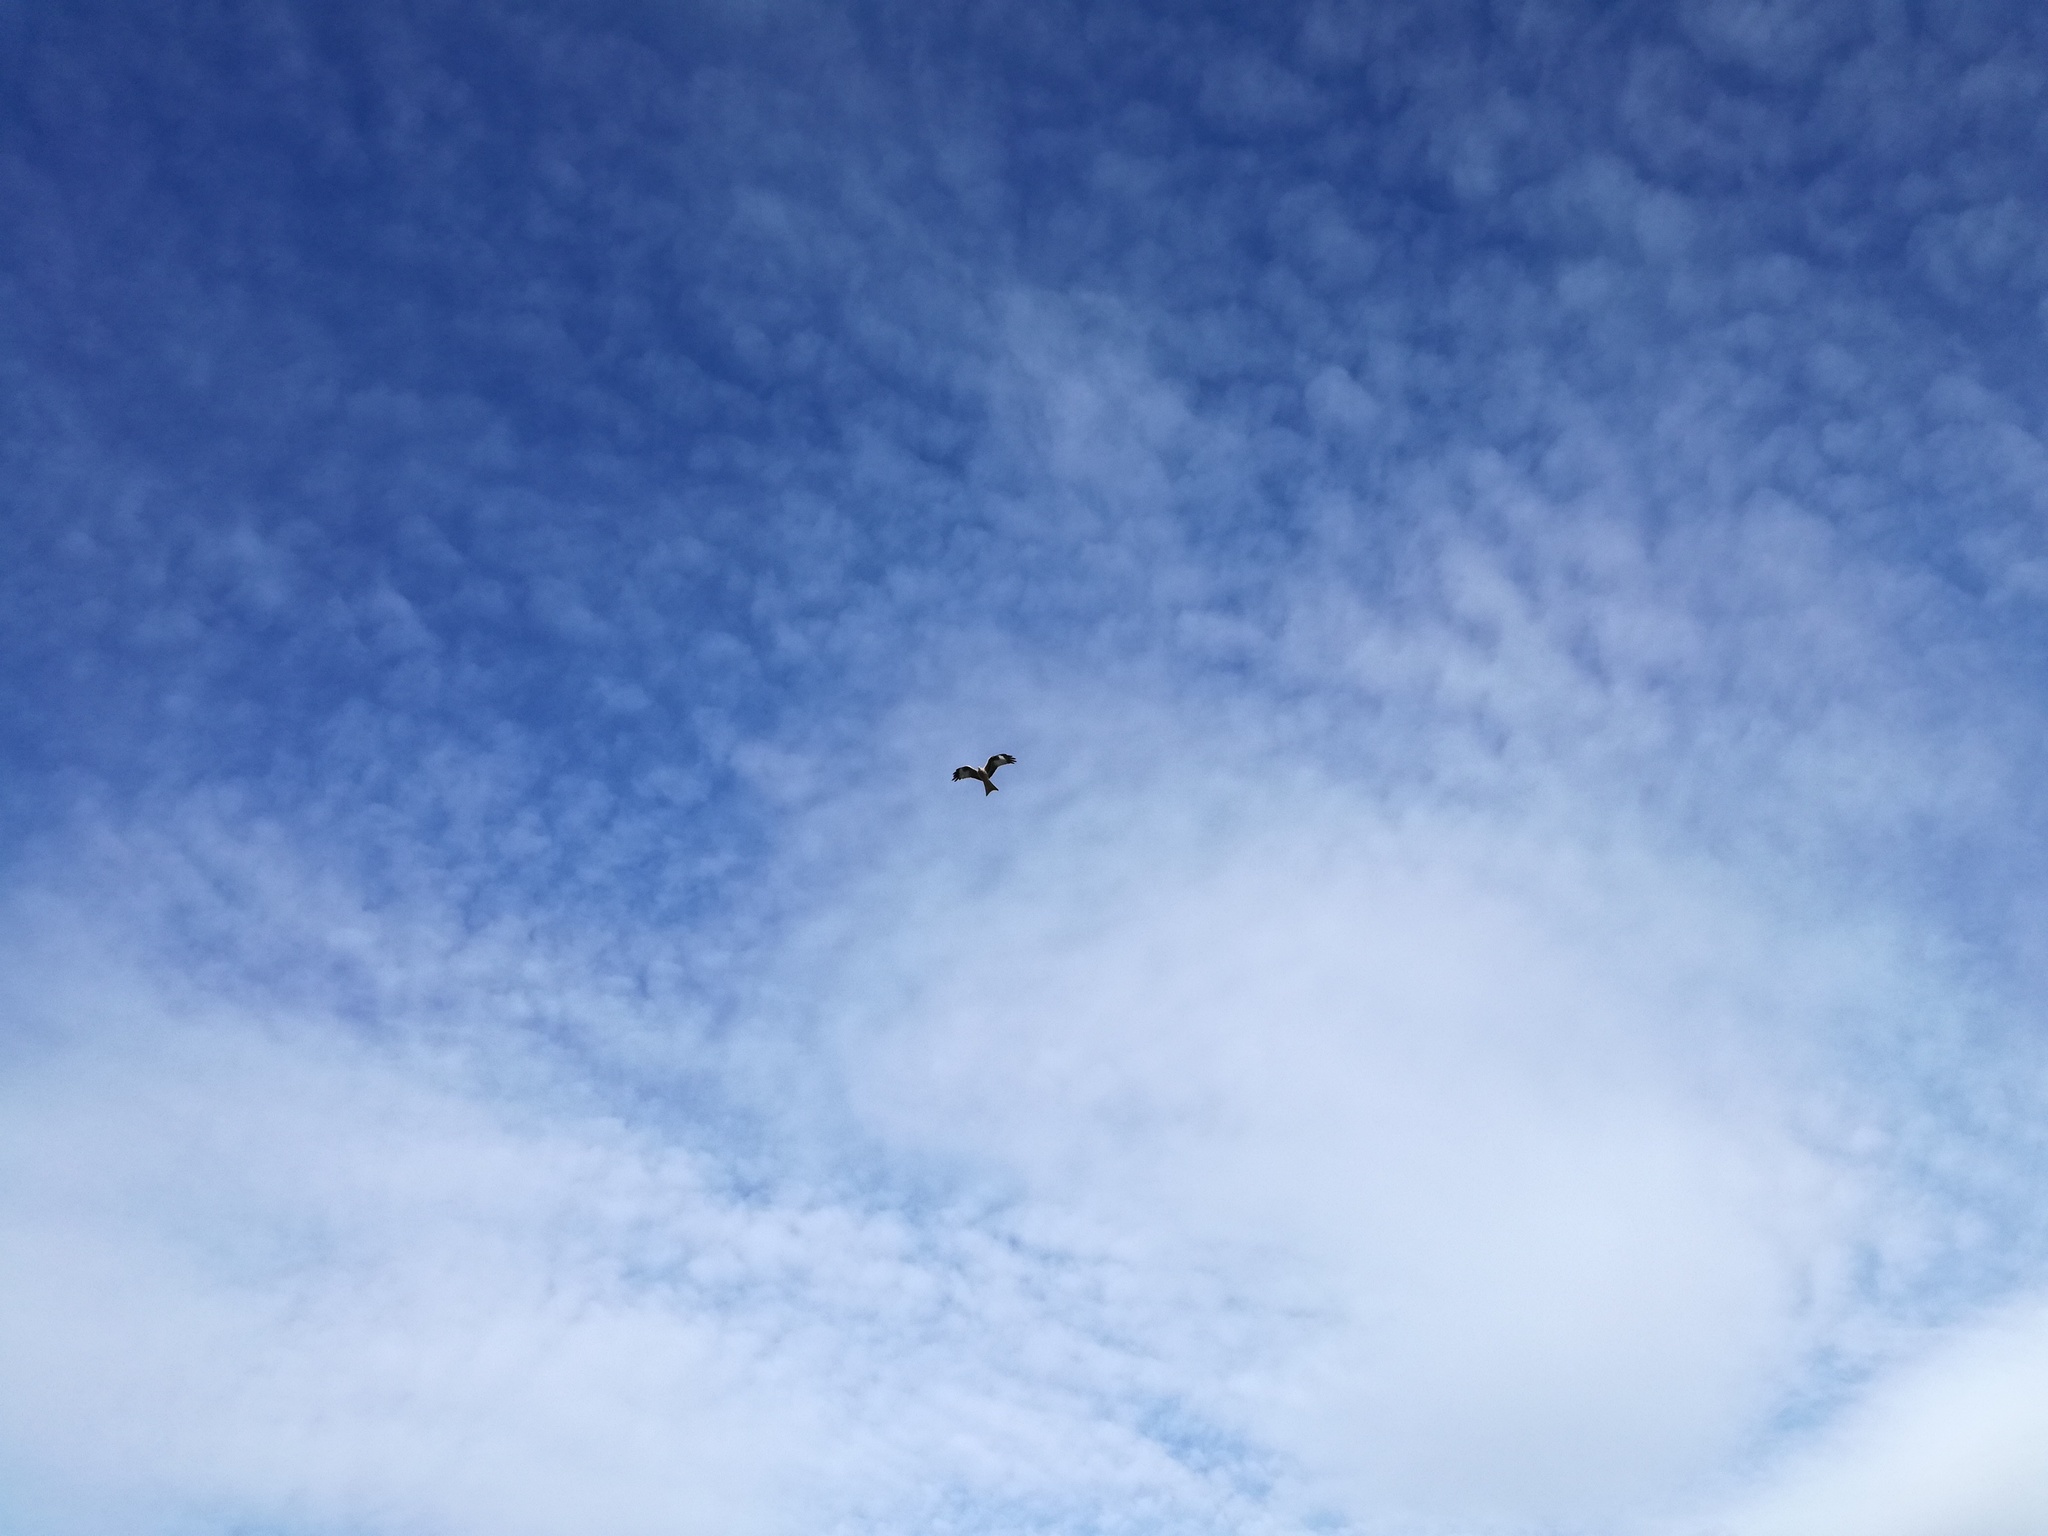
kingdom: Animalia
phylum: Chordata
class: Aves
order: Accipitriformes
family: Accipitridae
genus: Milvus
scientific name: Milvus milvus
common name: Red kite
